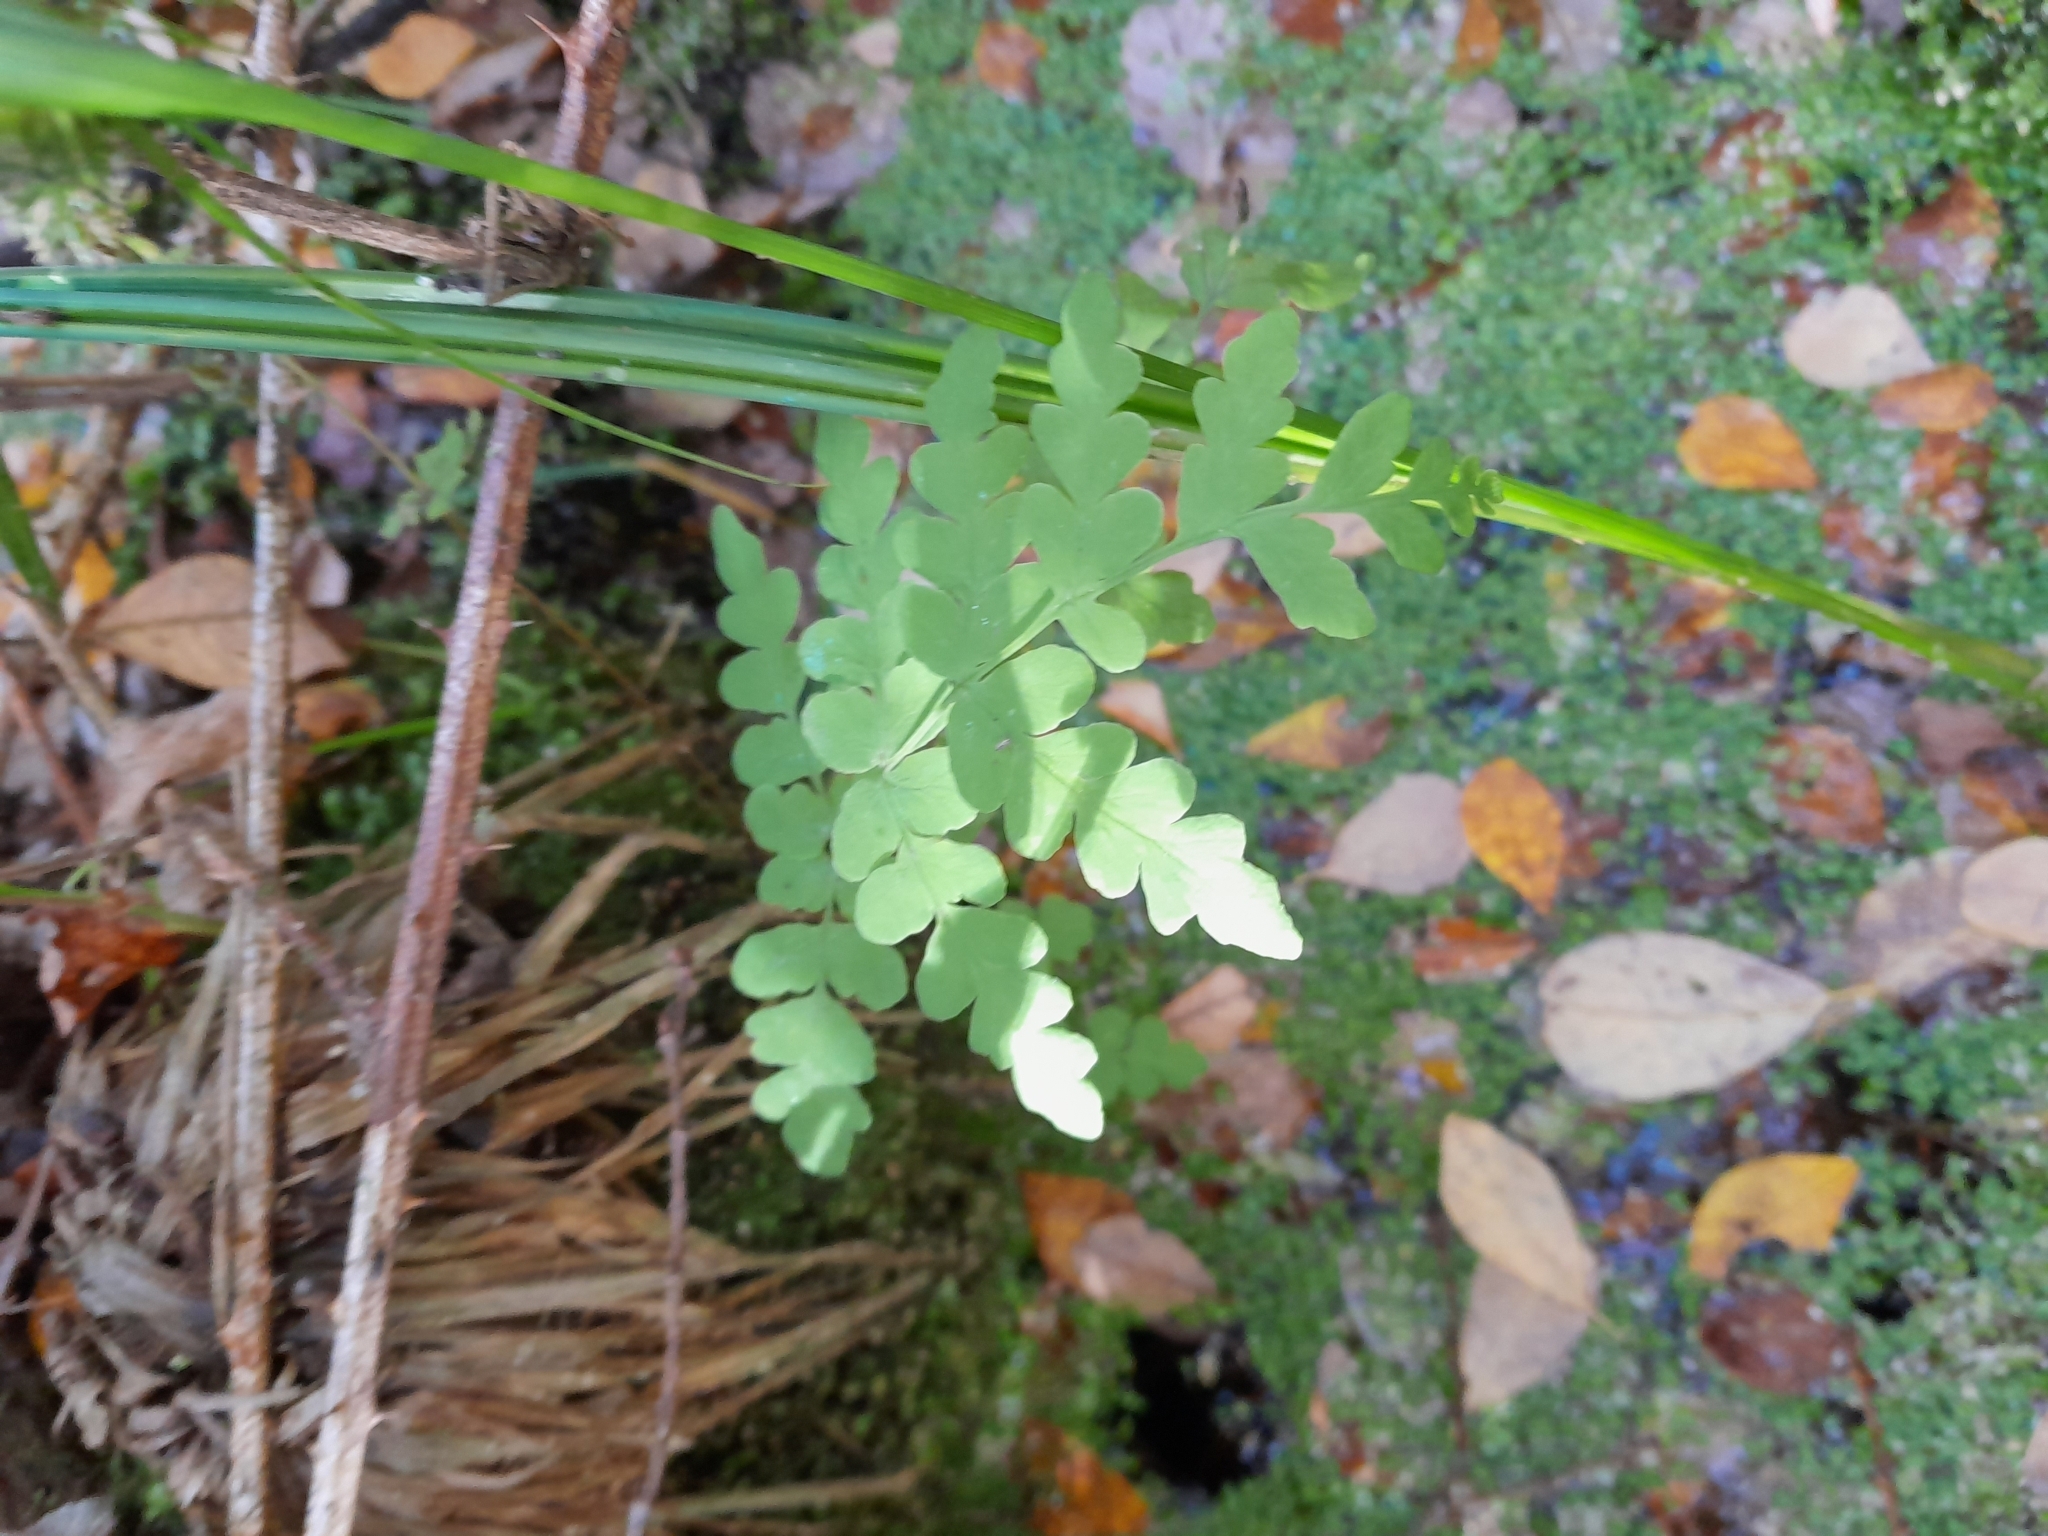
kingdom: Plantae
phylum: Tracheophyta
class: Polypodiopsida
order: Polypodiales
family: Dennstaedtiaceae
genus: Histiopteris
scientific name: Histiopteris incisa
